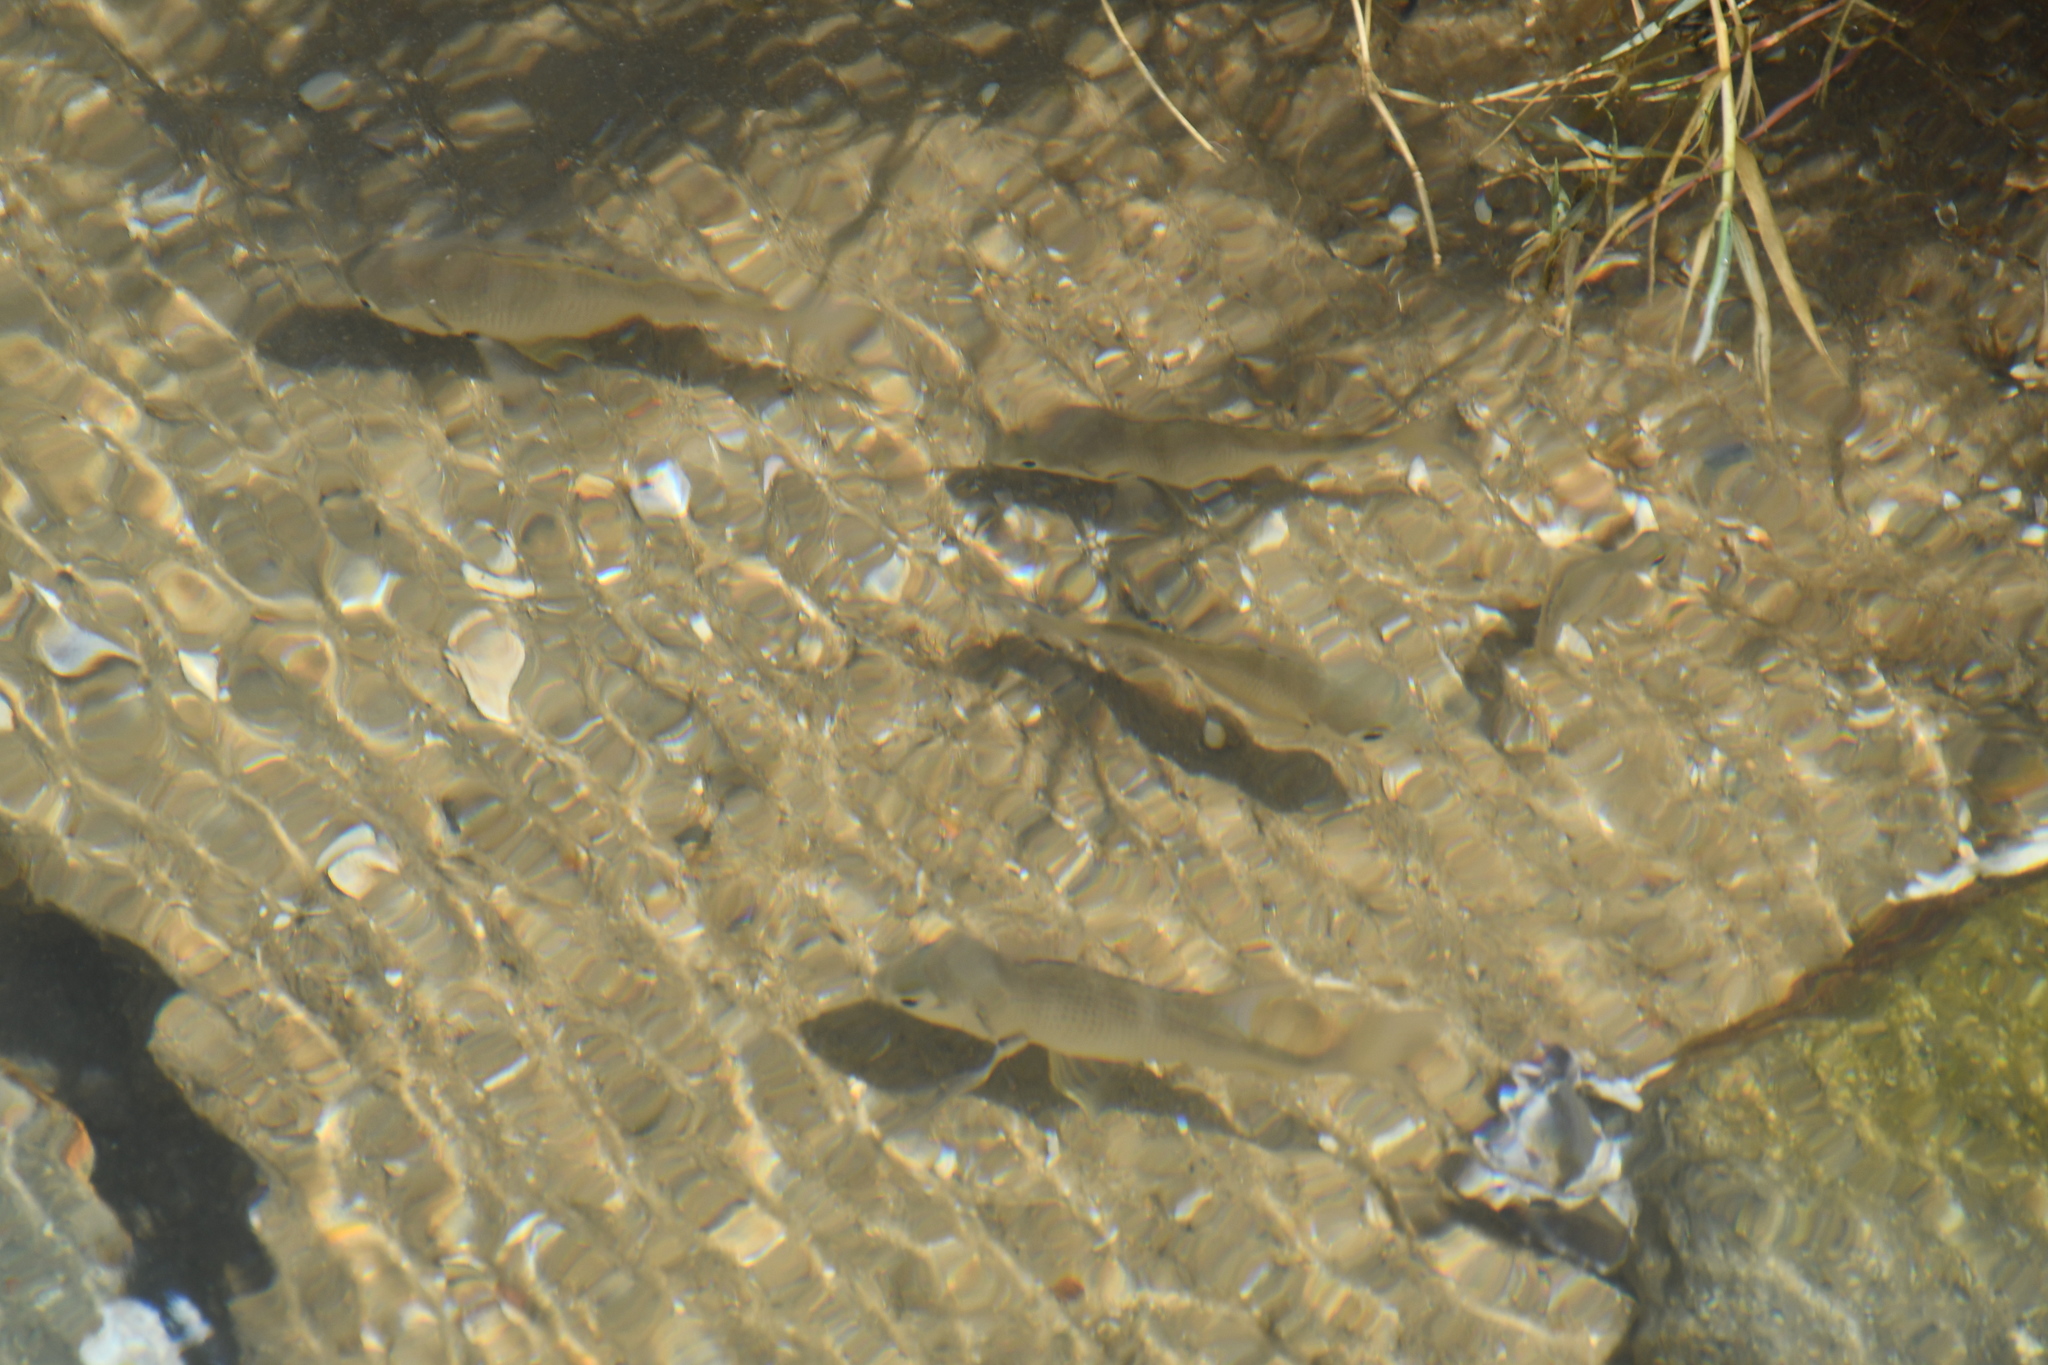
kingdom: Animalia
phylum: Chordata
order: Perciformes
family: Sparidae
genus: Acanthopagrus
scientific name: Acanthopagrus australis
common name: Surf bream
